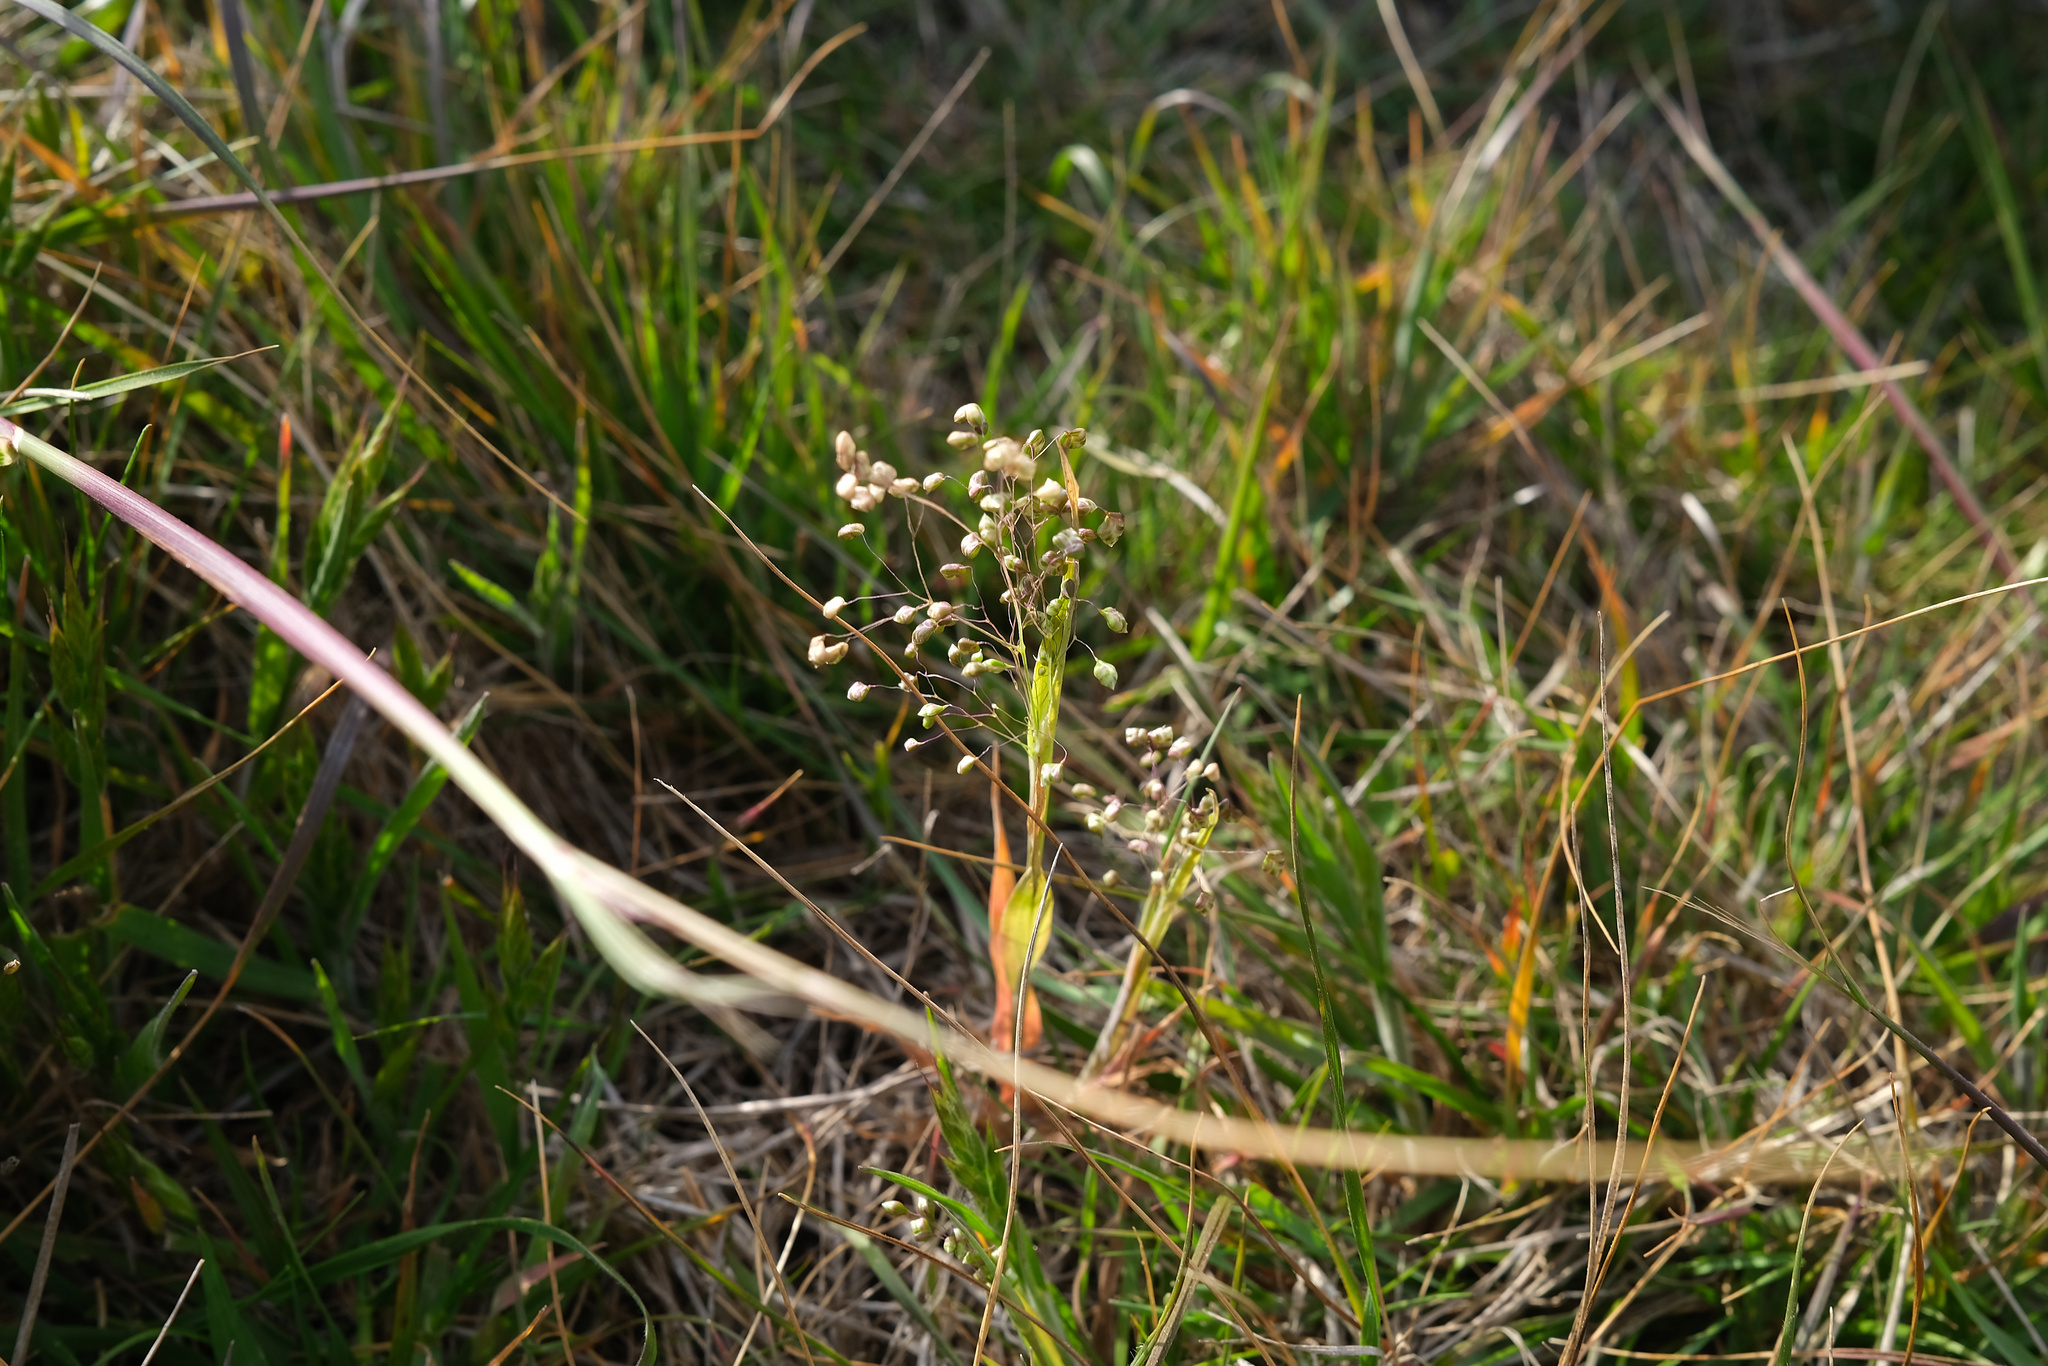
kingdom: Plantae
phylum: Tracheophyta
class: Liliopsida
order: Poales
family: Poaceae
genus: Briza
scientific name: Briza minor
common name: Lesser quaking-grass
